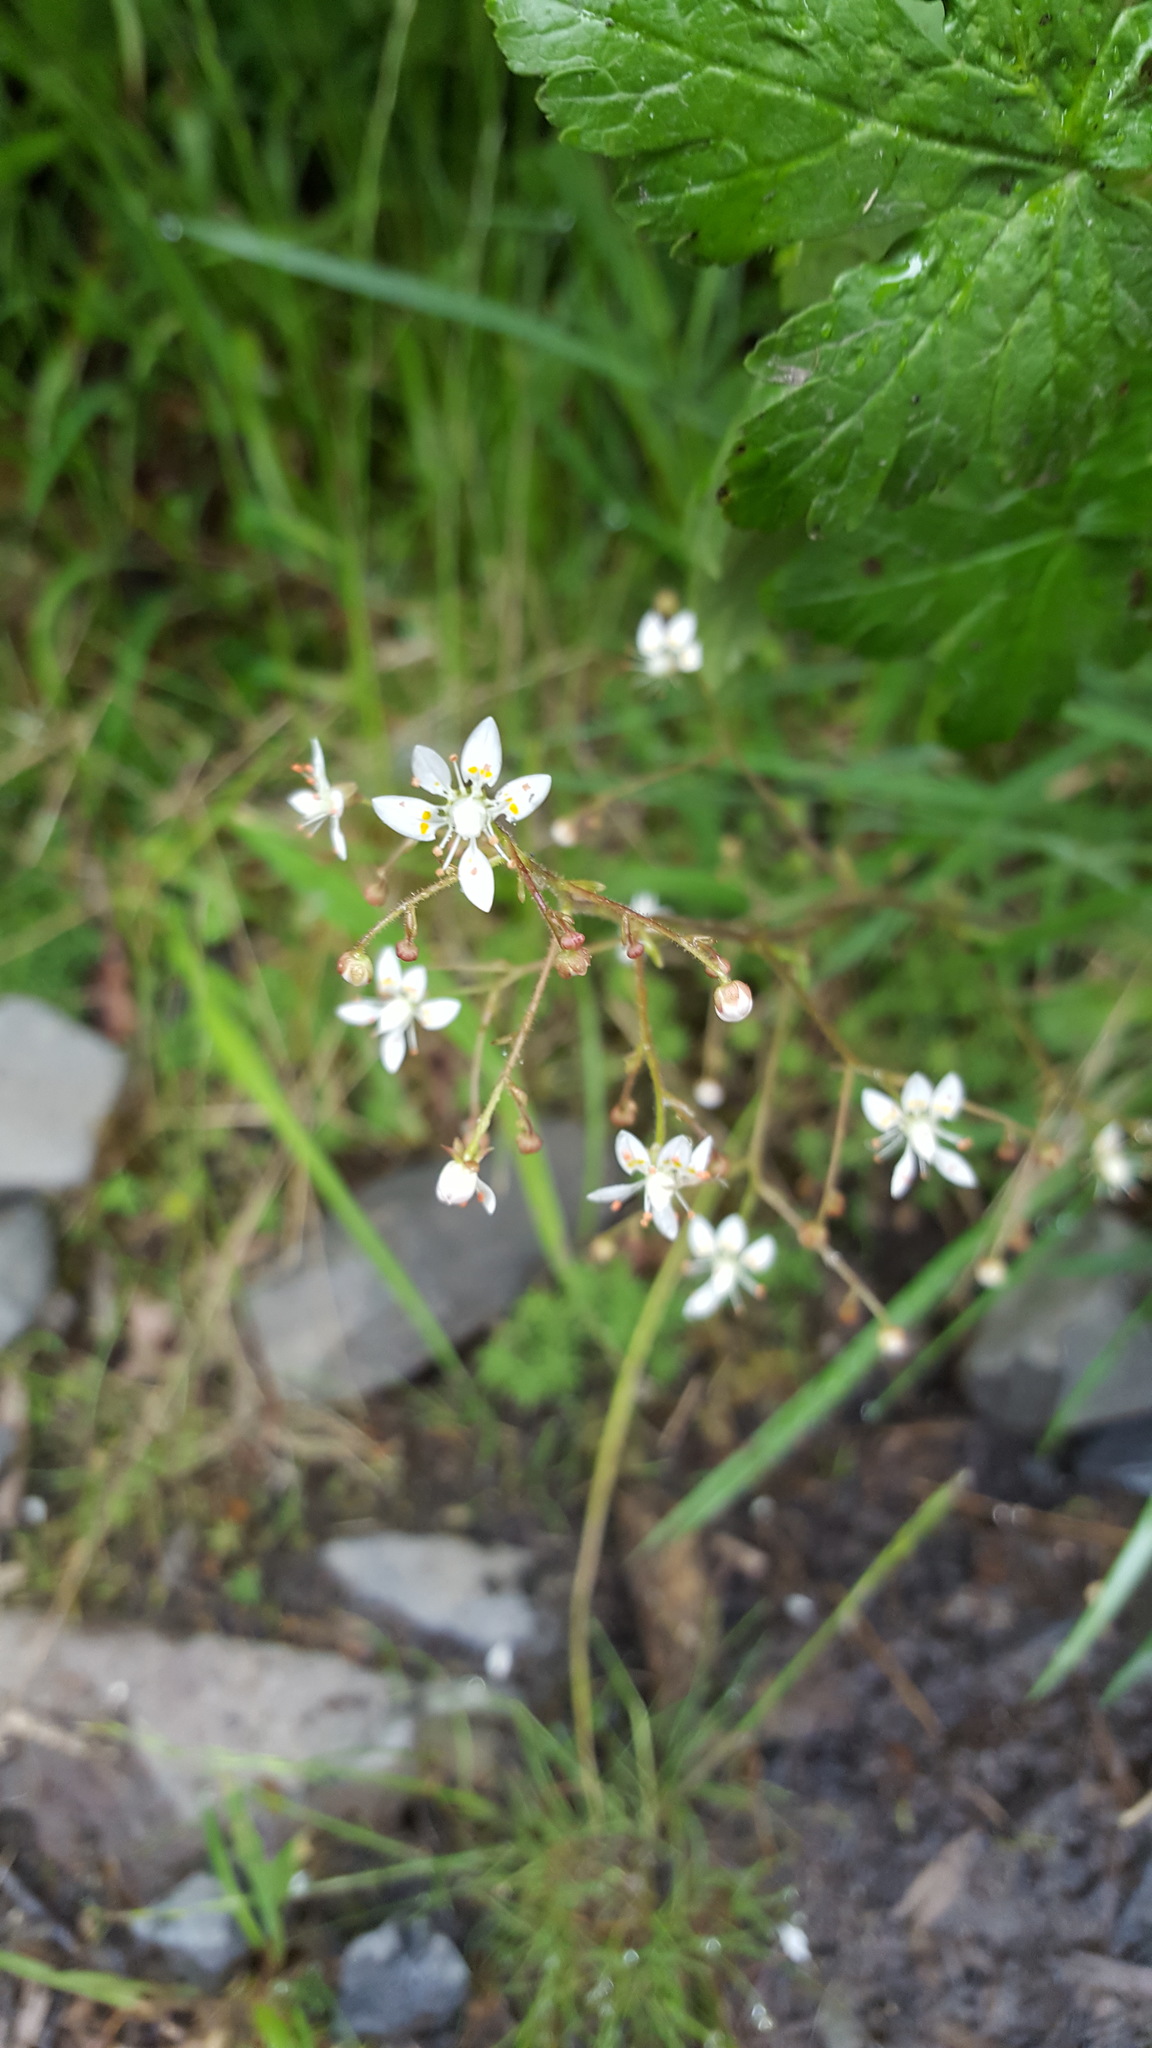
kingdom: Plantae
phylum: Tracheophyta
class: Magnoliopsida
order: Saxifragales
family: Saxifragaceae
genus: Micranthes
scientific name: Micranthes ferruginea
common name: Rusty saxifrage
